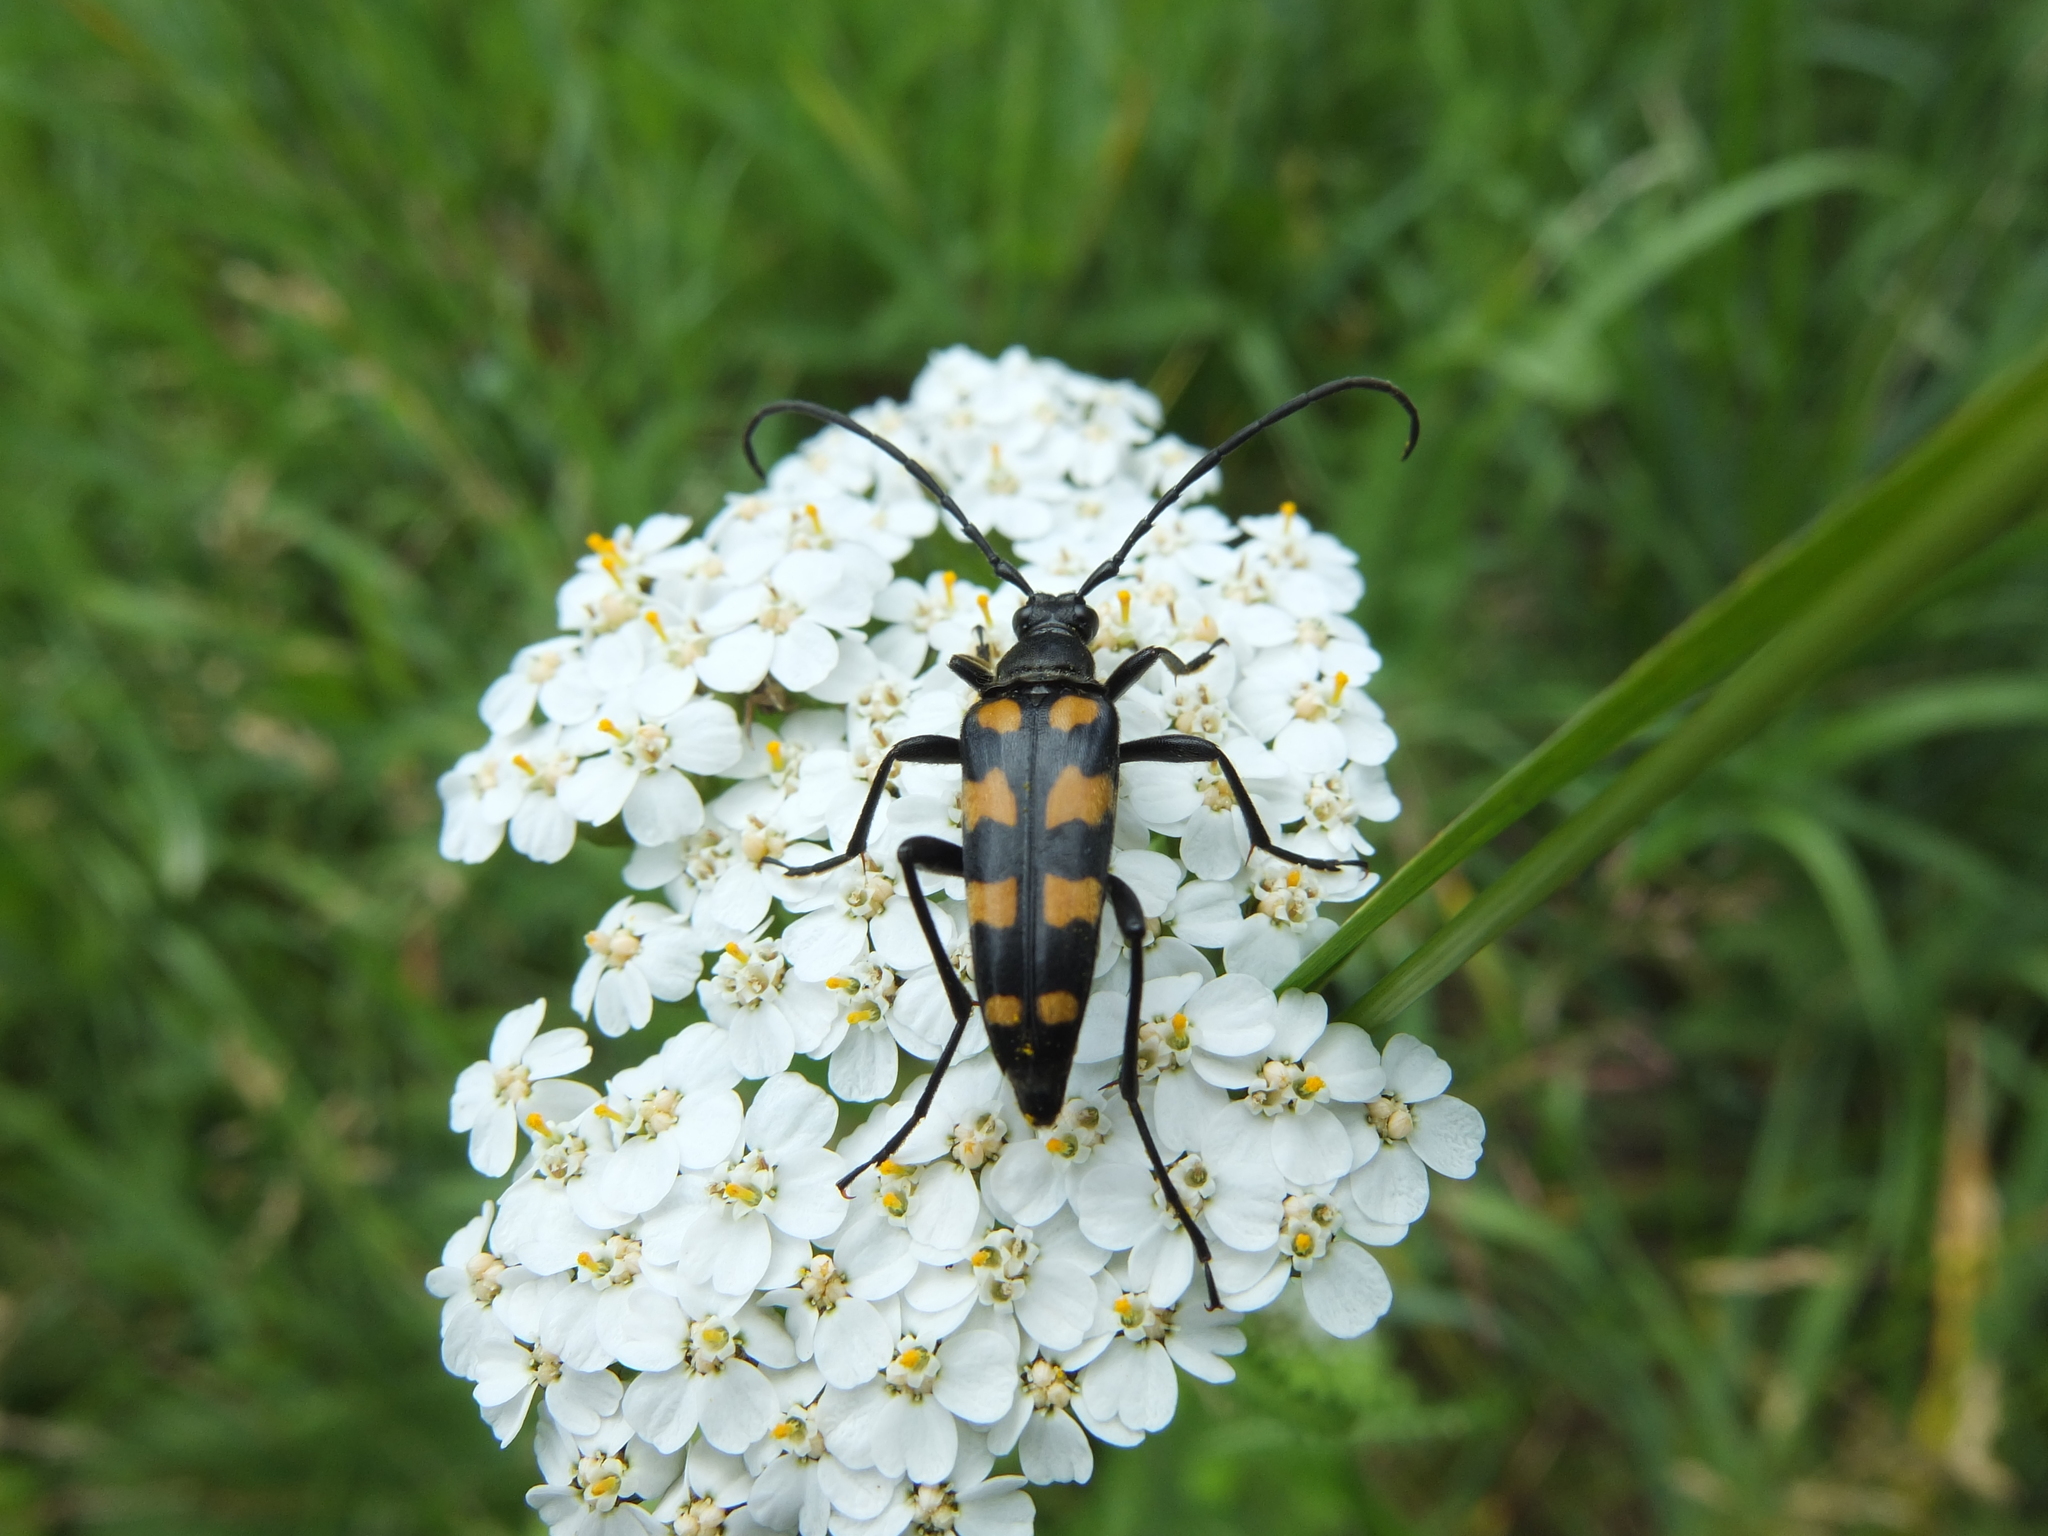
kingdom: Animalia
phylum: Arthropoda
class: Insecta
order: Coleoptera
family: Cerambycidae
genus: Leptura
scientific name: Leptura quadrifasciata
